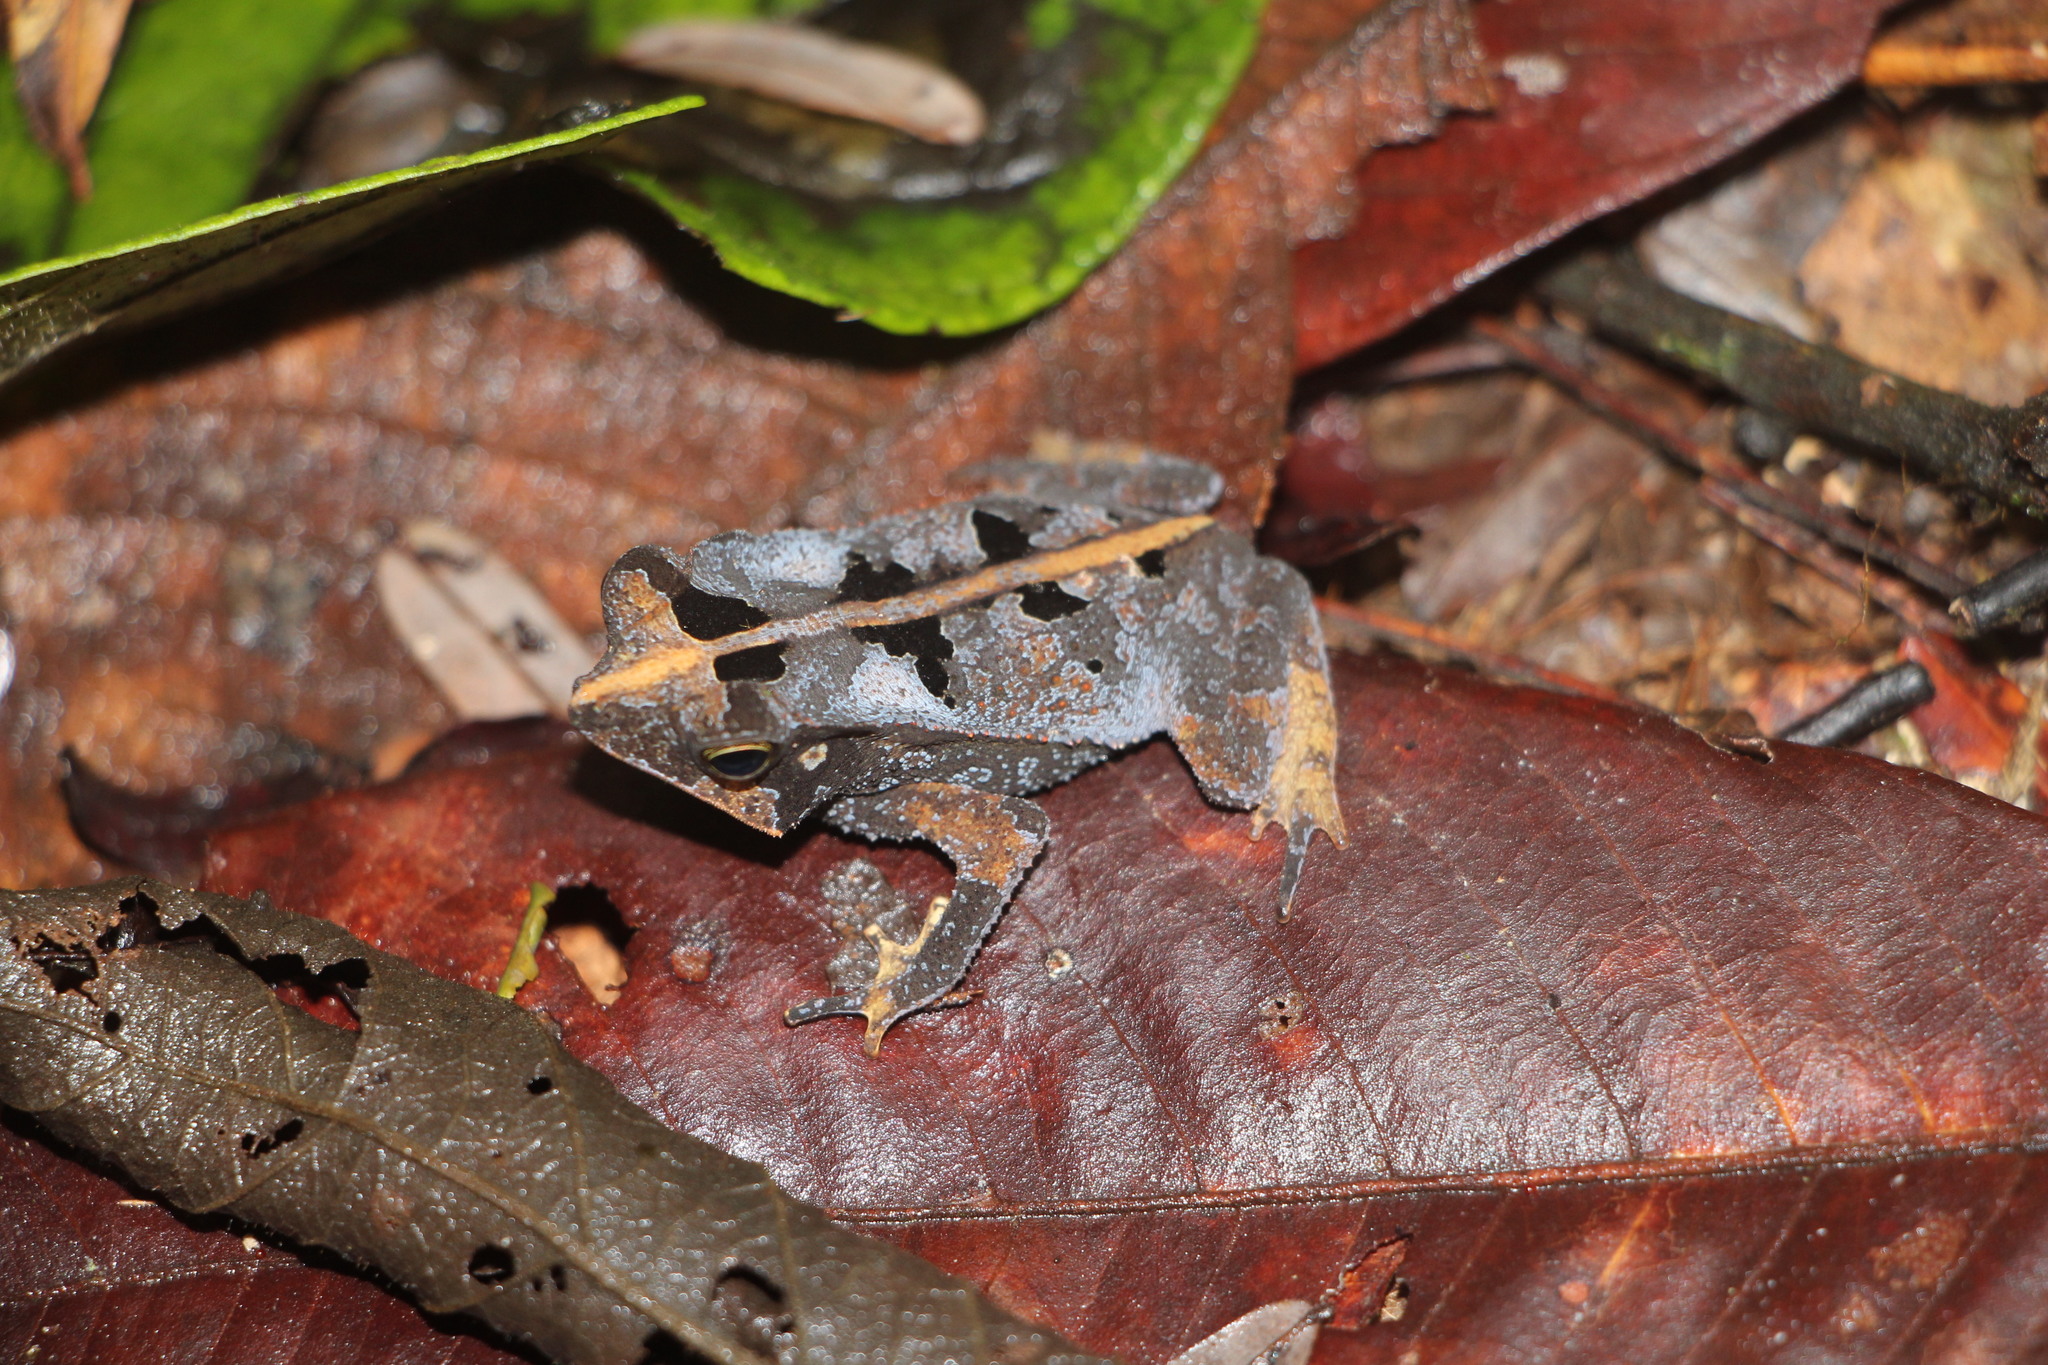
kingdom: Animalia
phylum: Chordata
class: Amphibia
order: Anura
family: Bufonidae
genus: Rhinella
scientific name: Rhinella margaritifera
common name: Mitred toad
